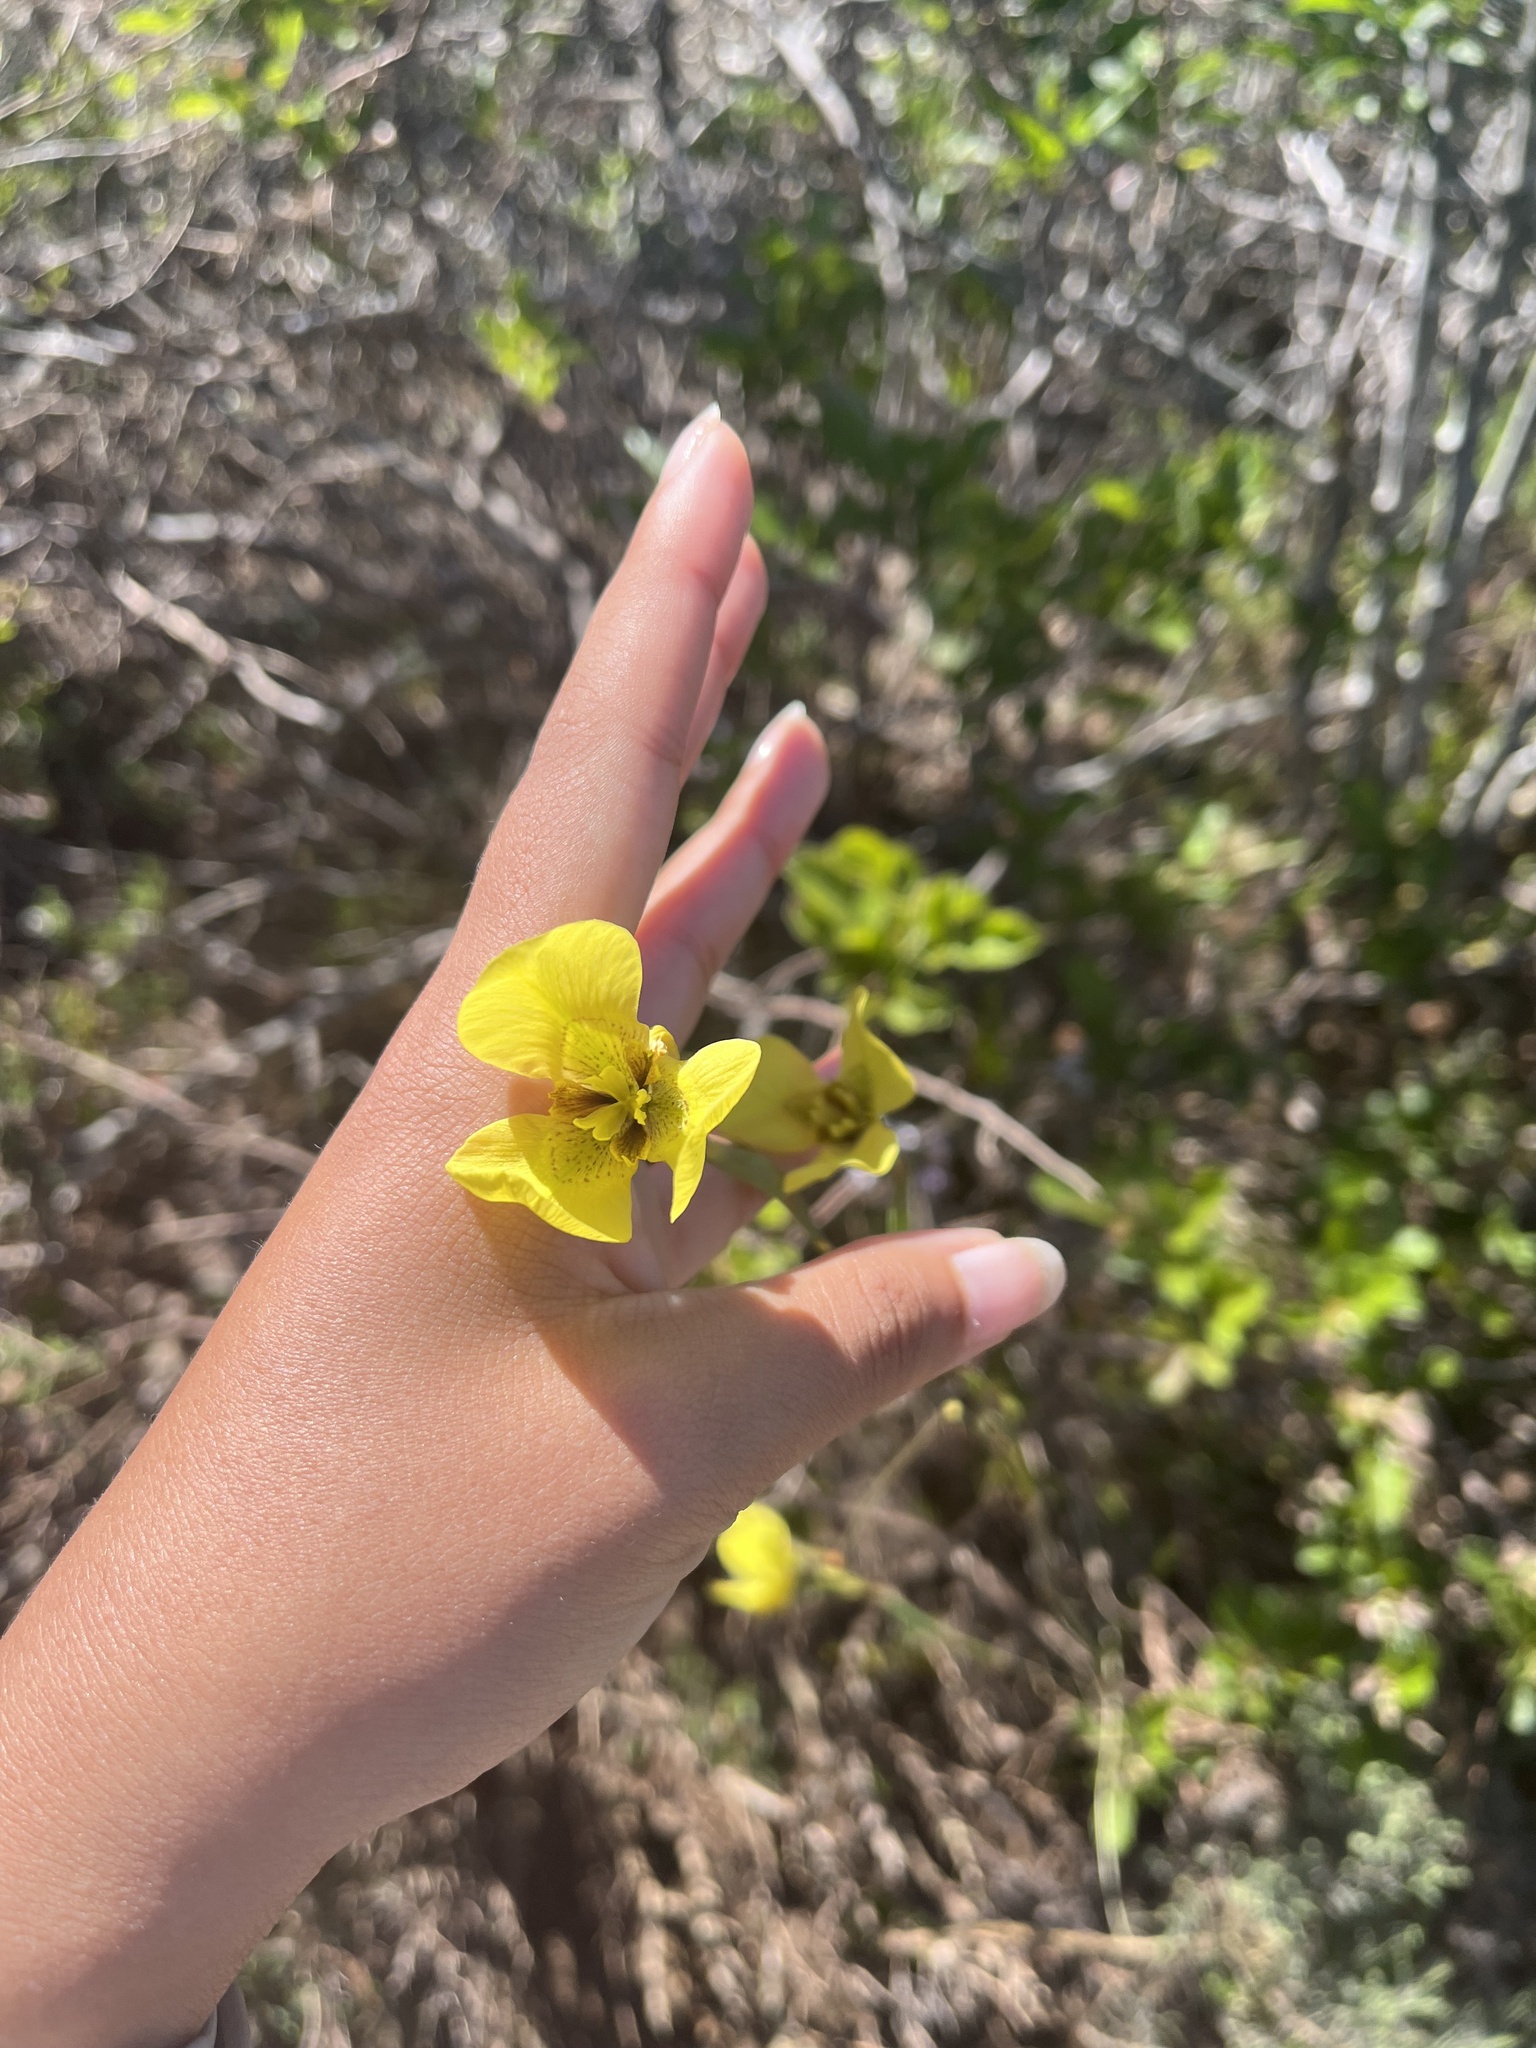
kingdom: Plantae
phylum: Tracheophyta
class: Liliopsida
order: Asparagales
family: Iridaceae
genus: Moraea
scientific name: Moraea bellendenii
